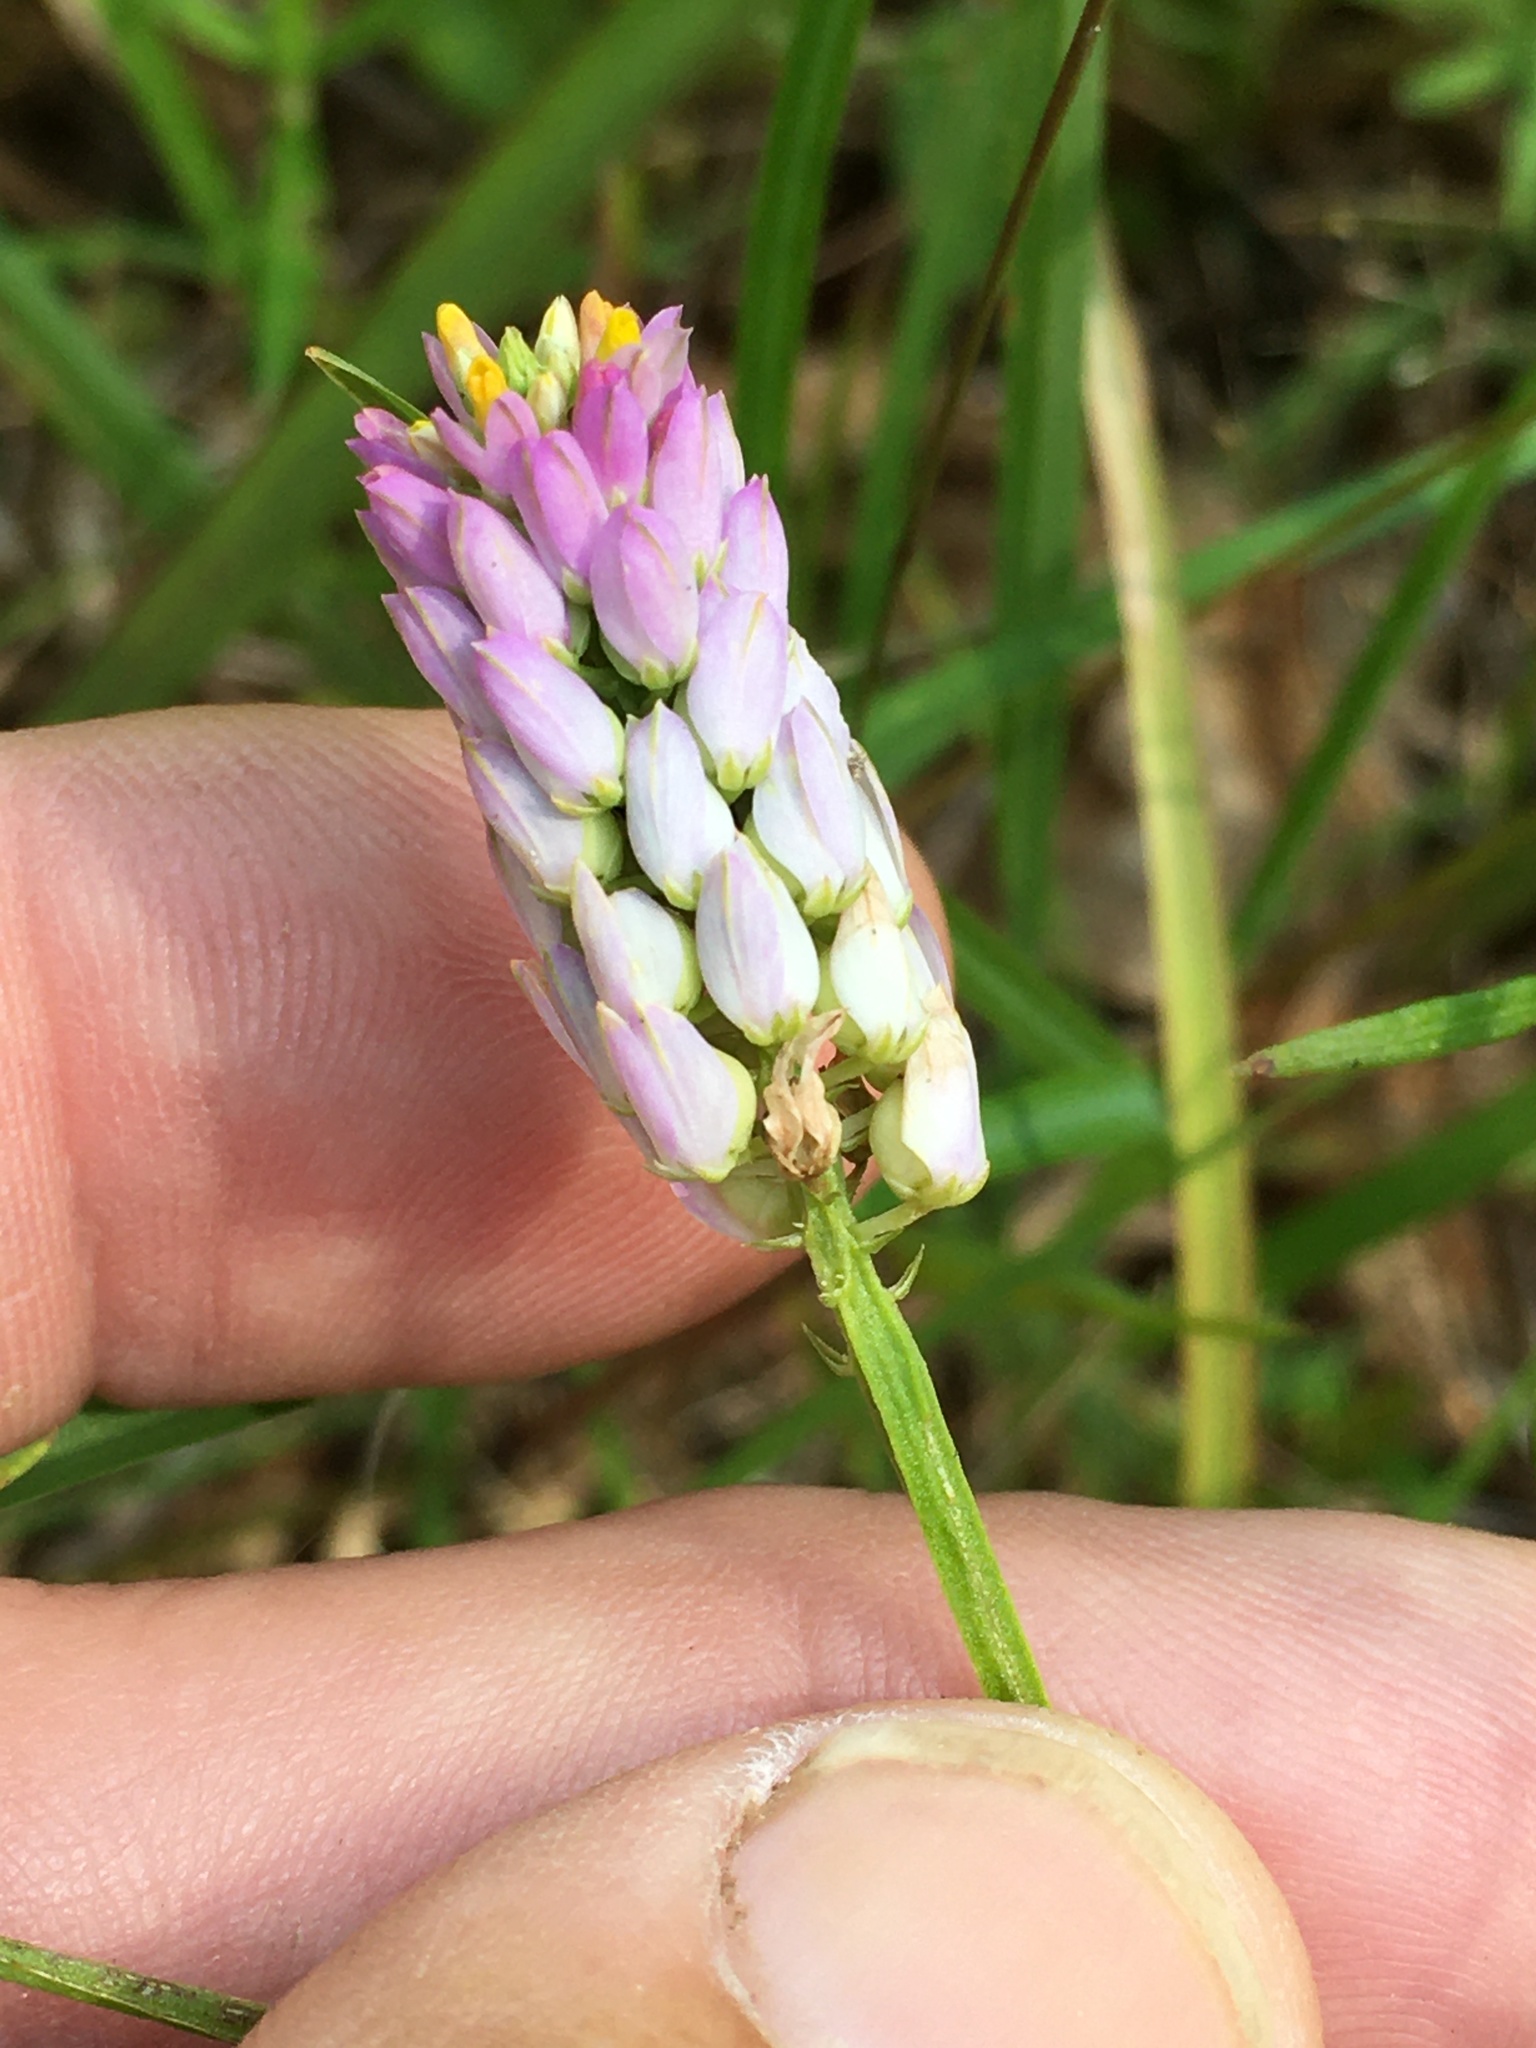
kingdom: Plantae
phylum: Tracheophyta
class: Magnoliopsida
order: Fabales
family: Polygalaceae
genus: Polygala
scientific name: Polygala curtissii
